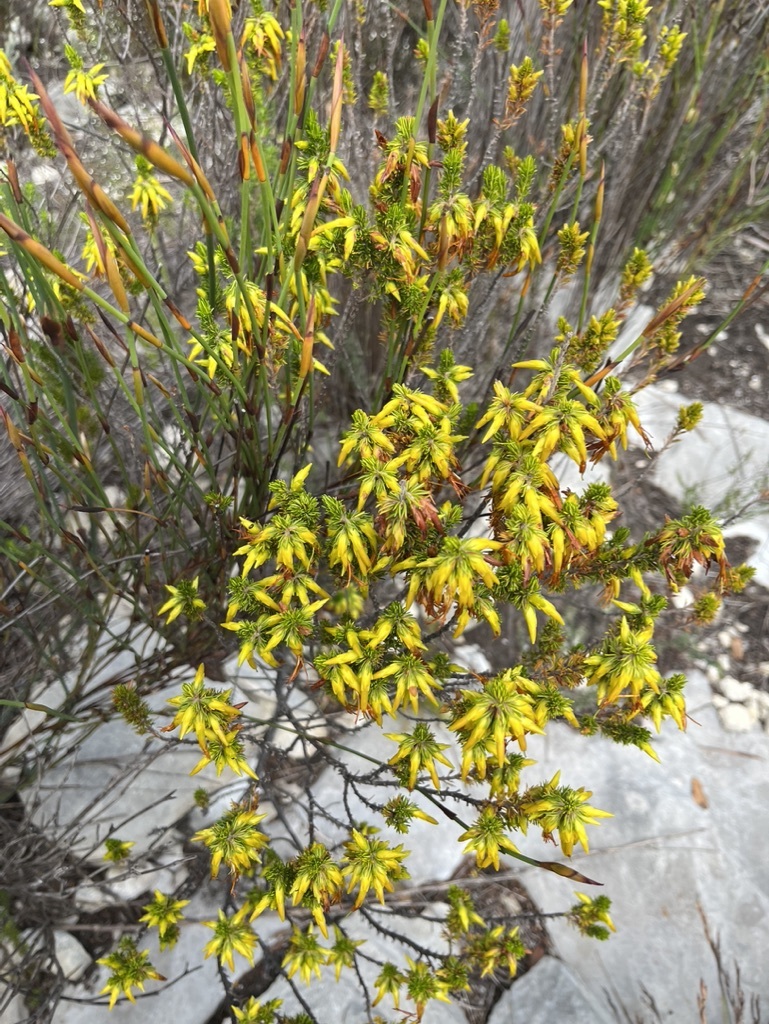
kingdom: Plantae
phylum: Tracheophyta
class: Magnoliopsida
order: Ericales
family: Ericaceae
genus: Erica
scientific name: Erica coccinea
